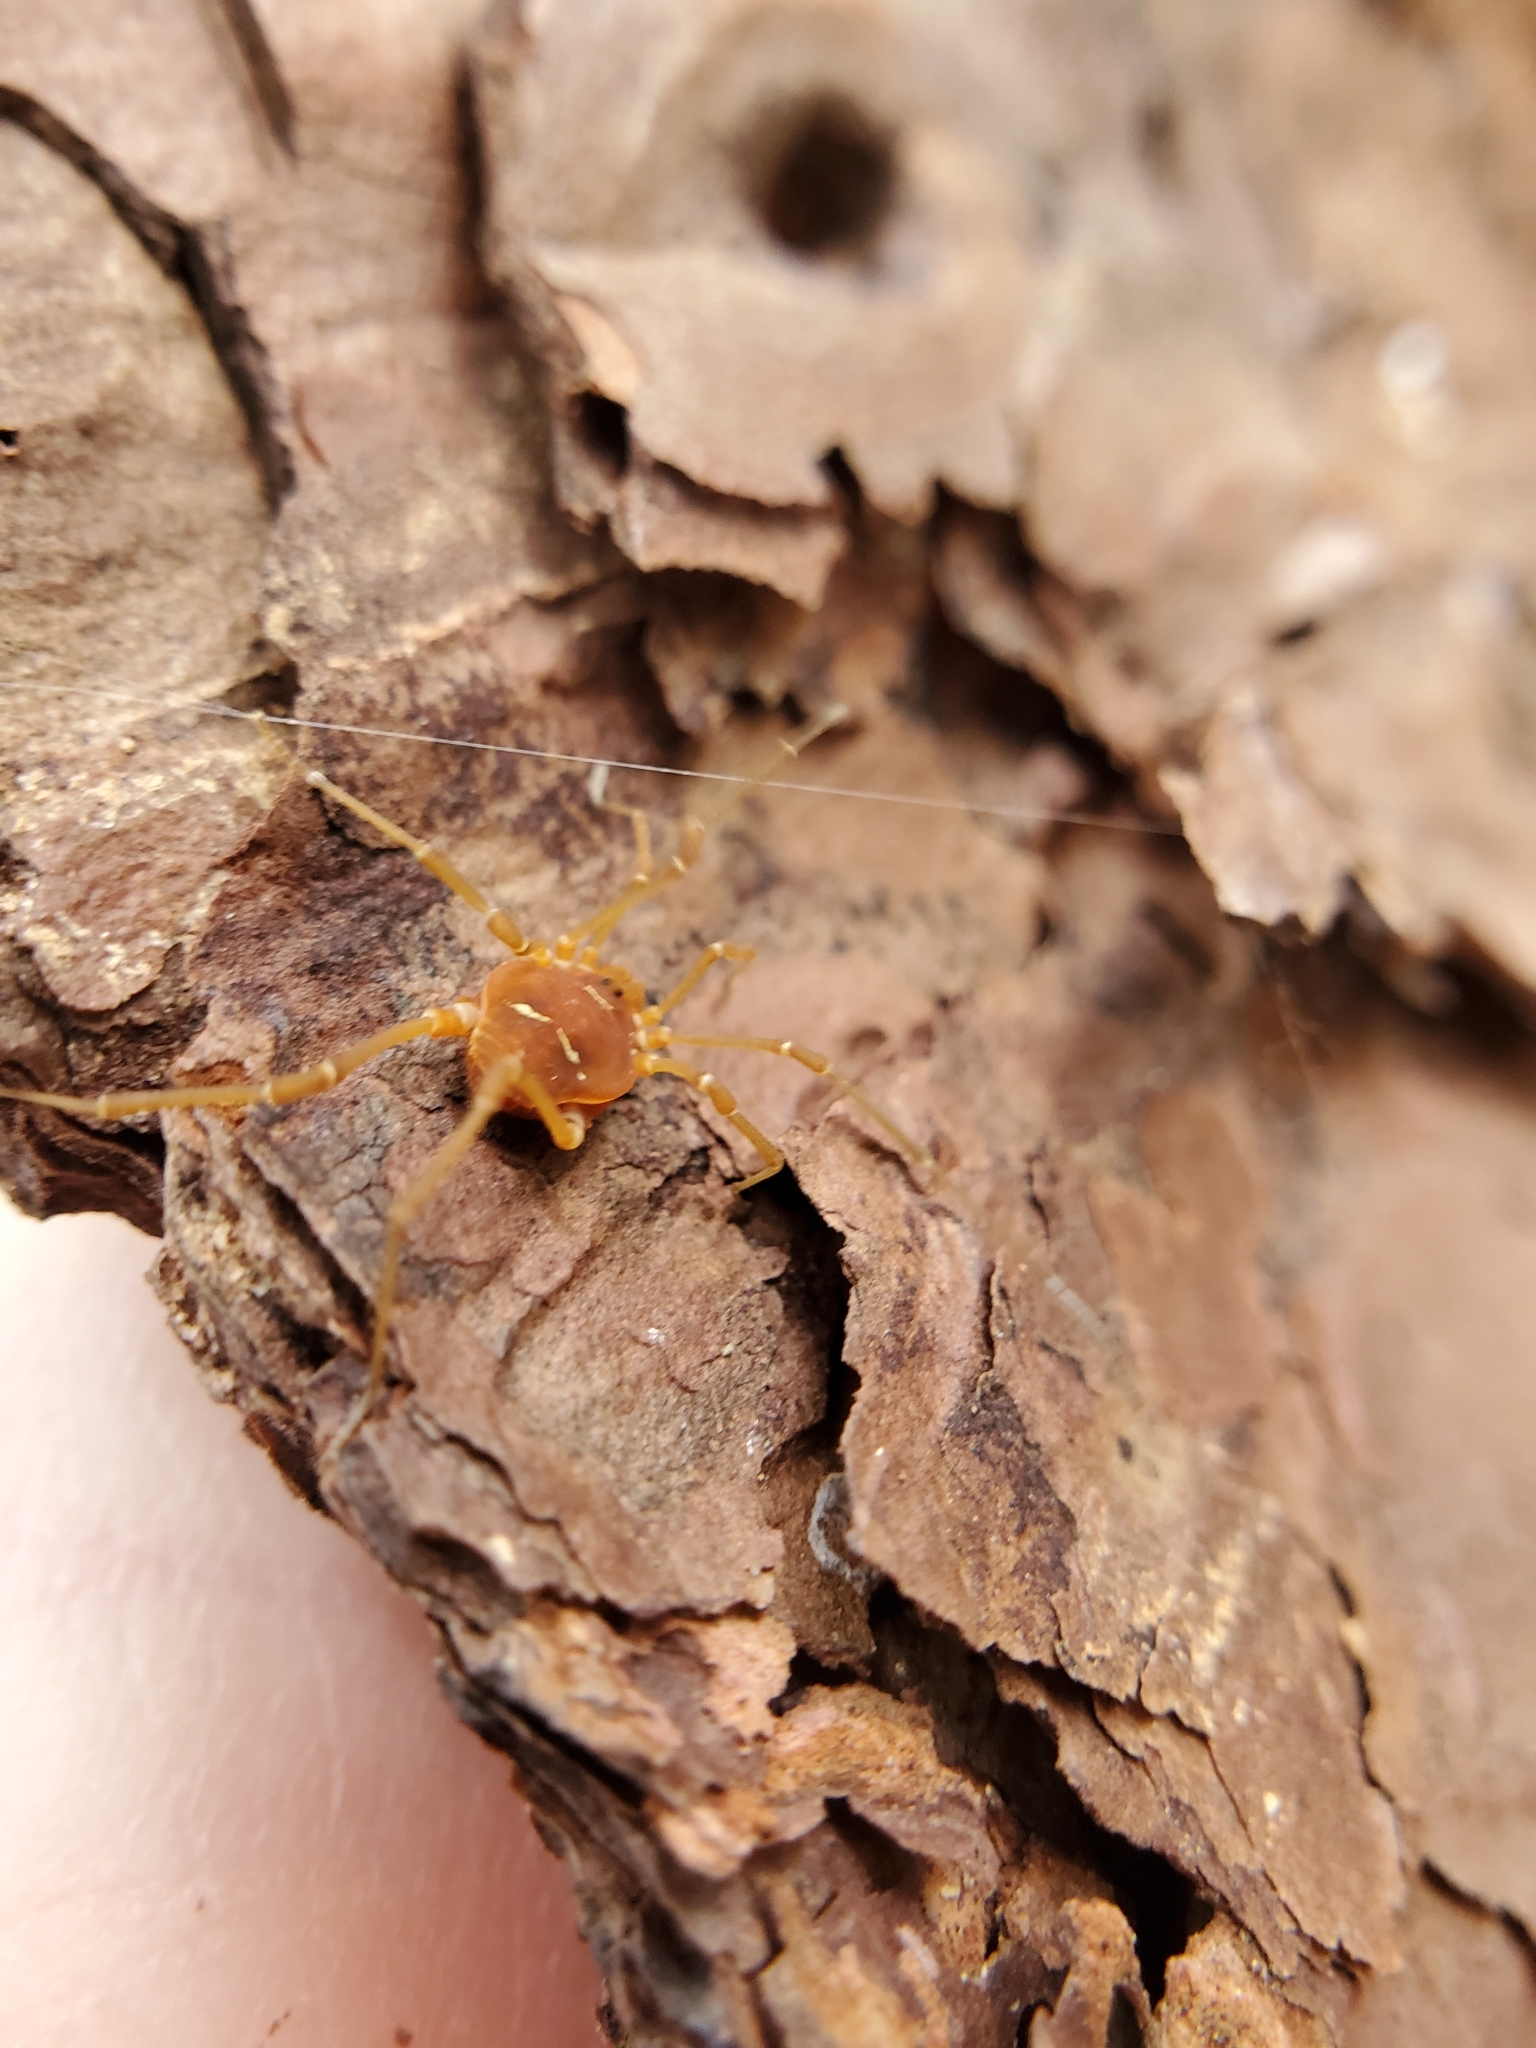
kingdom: Animalia
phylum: Arthropoda
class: Arachnida
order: Opiliones
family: Cosmetidae
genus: Libitioides
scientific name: Libitioides sayi
